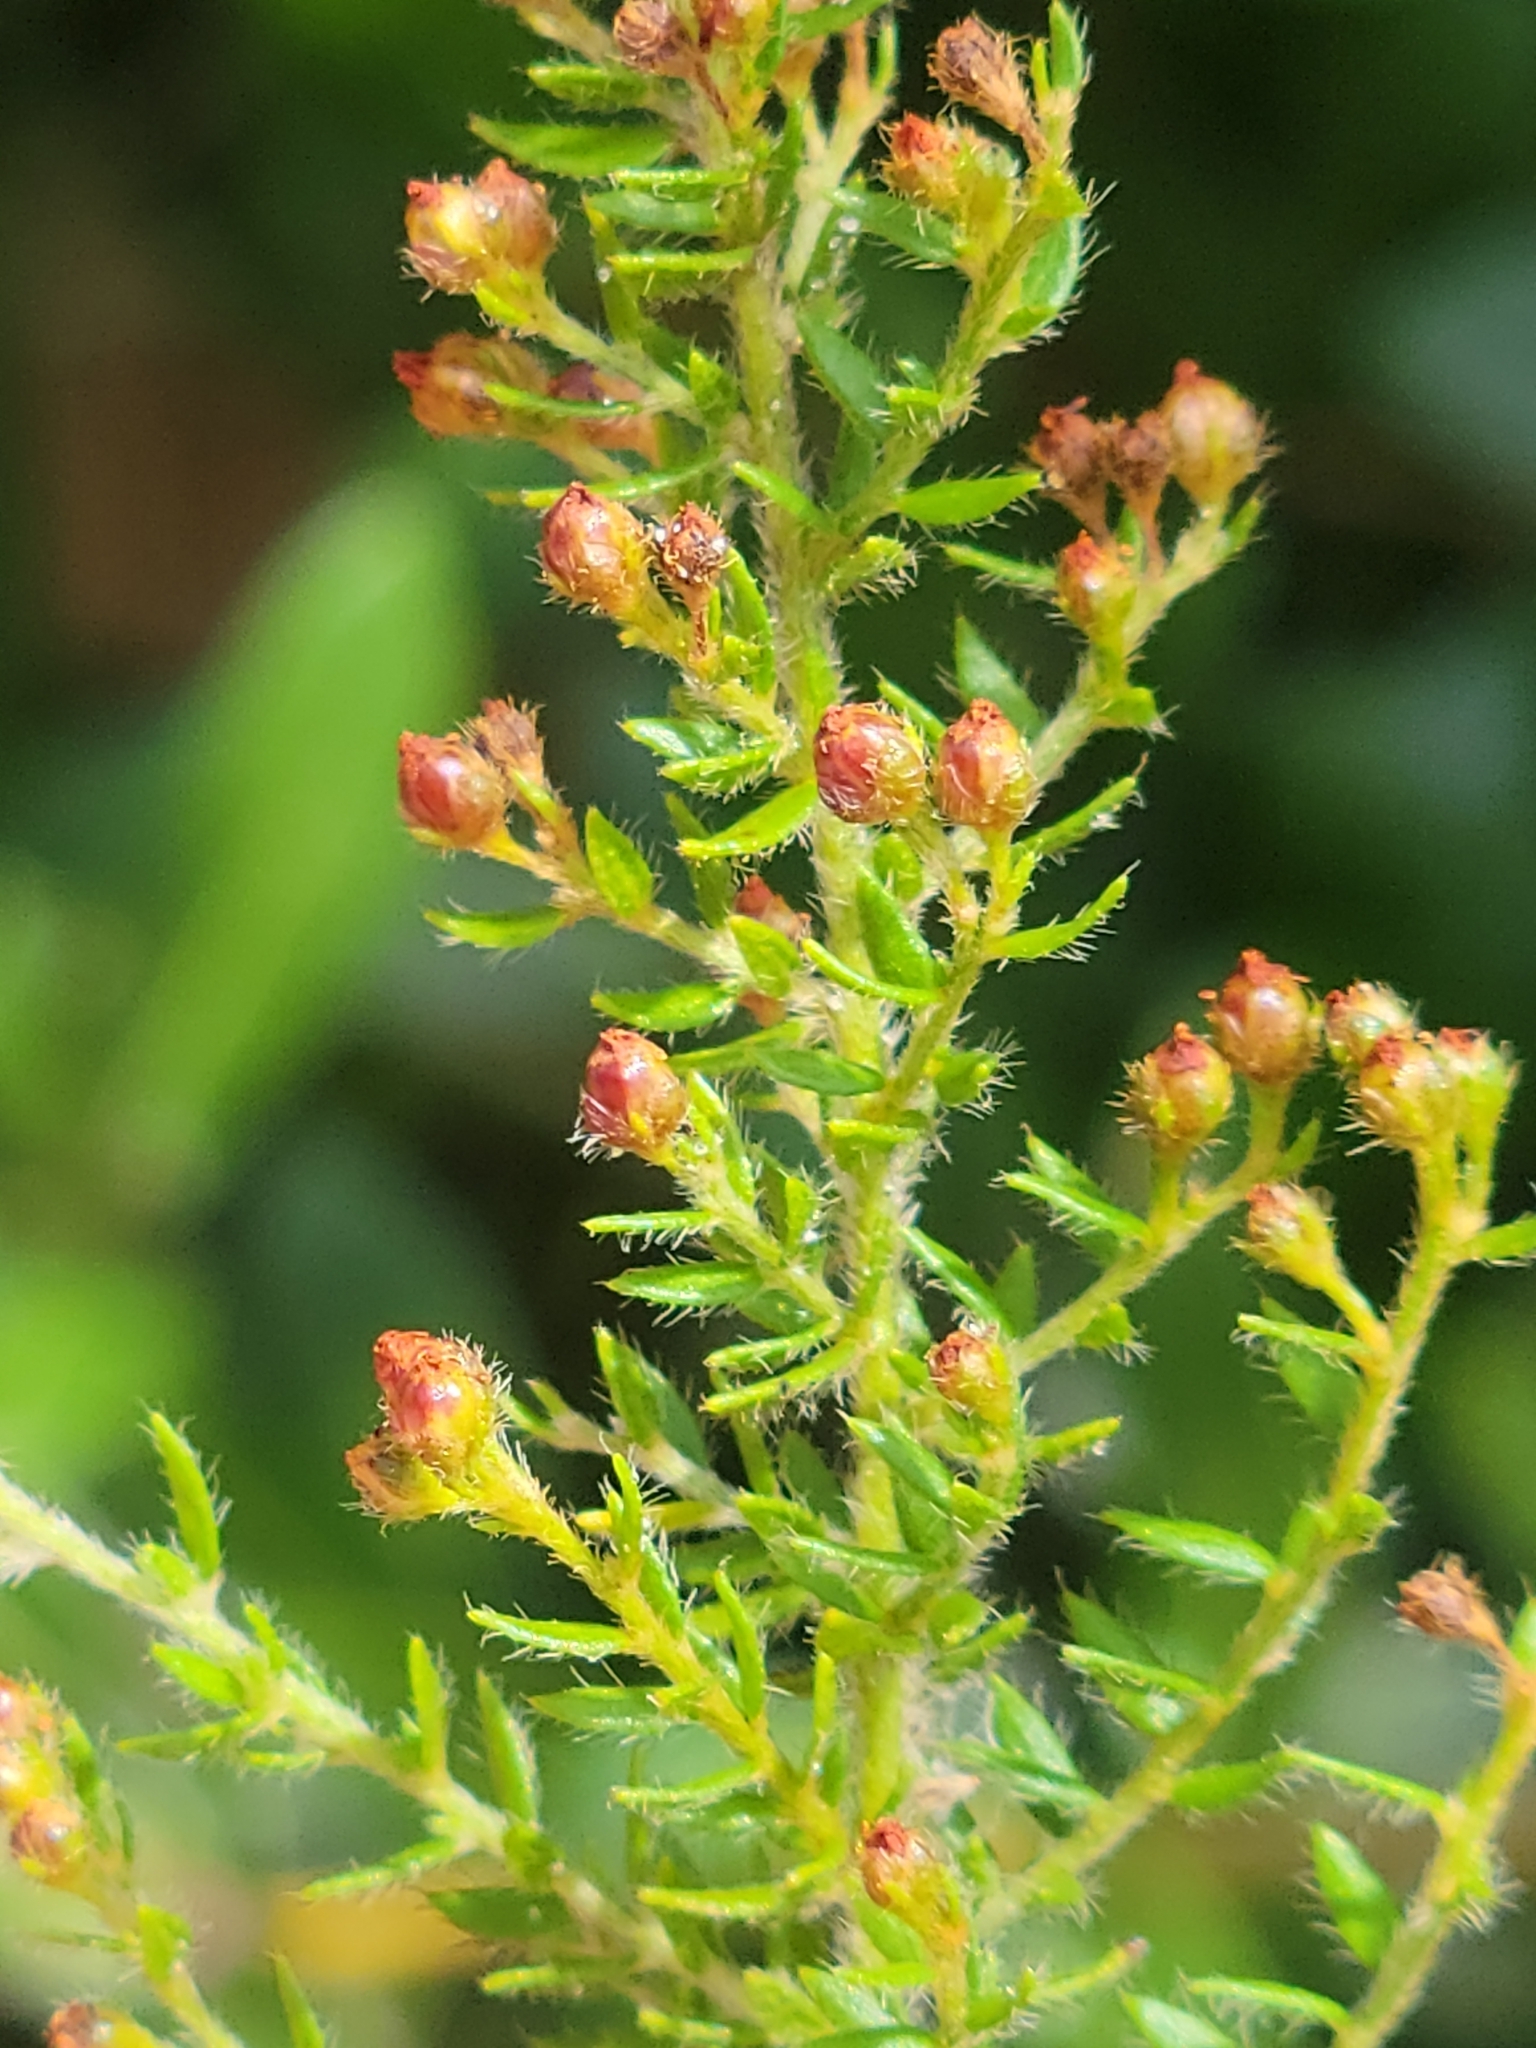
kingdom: Plantae
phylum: Tracheophyta
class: Magnoliopsida
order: Malvales
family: Cistaceae
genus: Lechea
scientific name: Lechea divaricata
